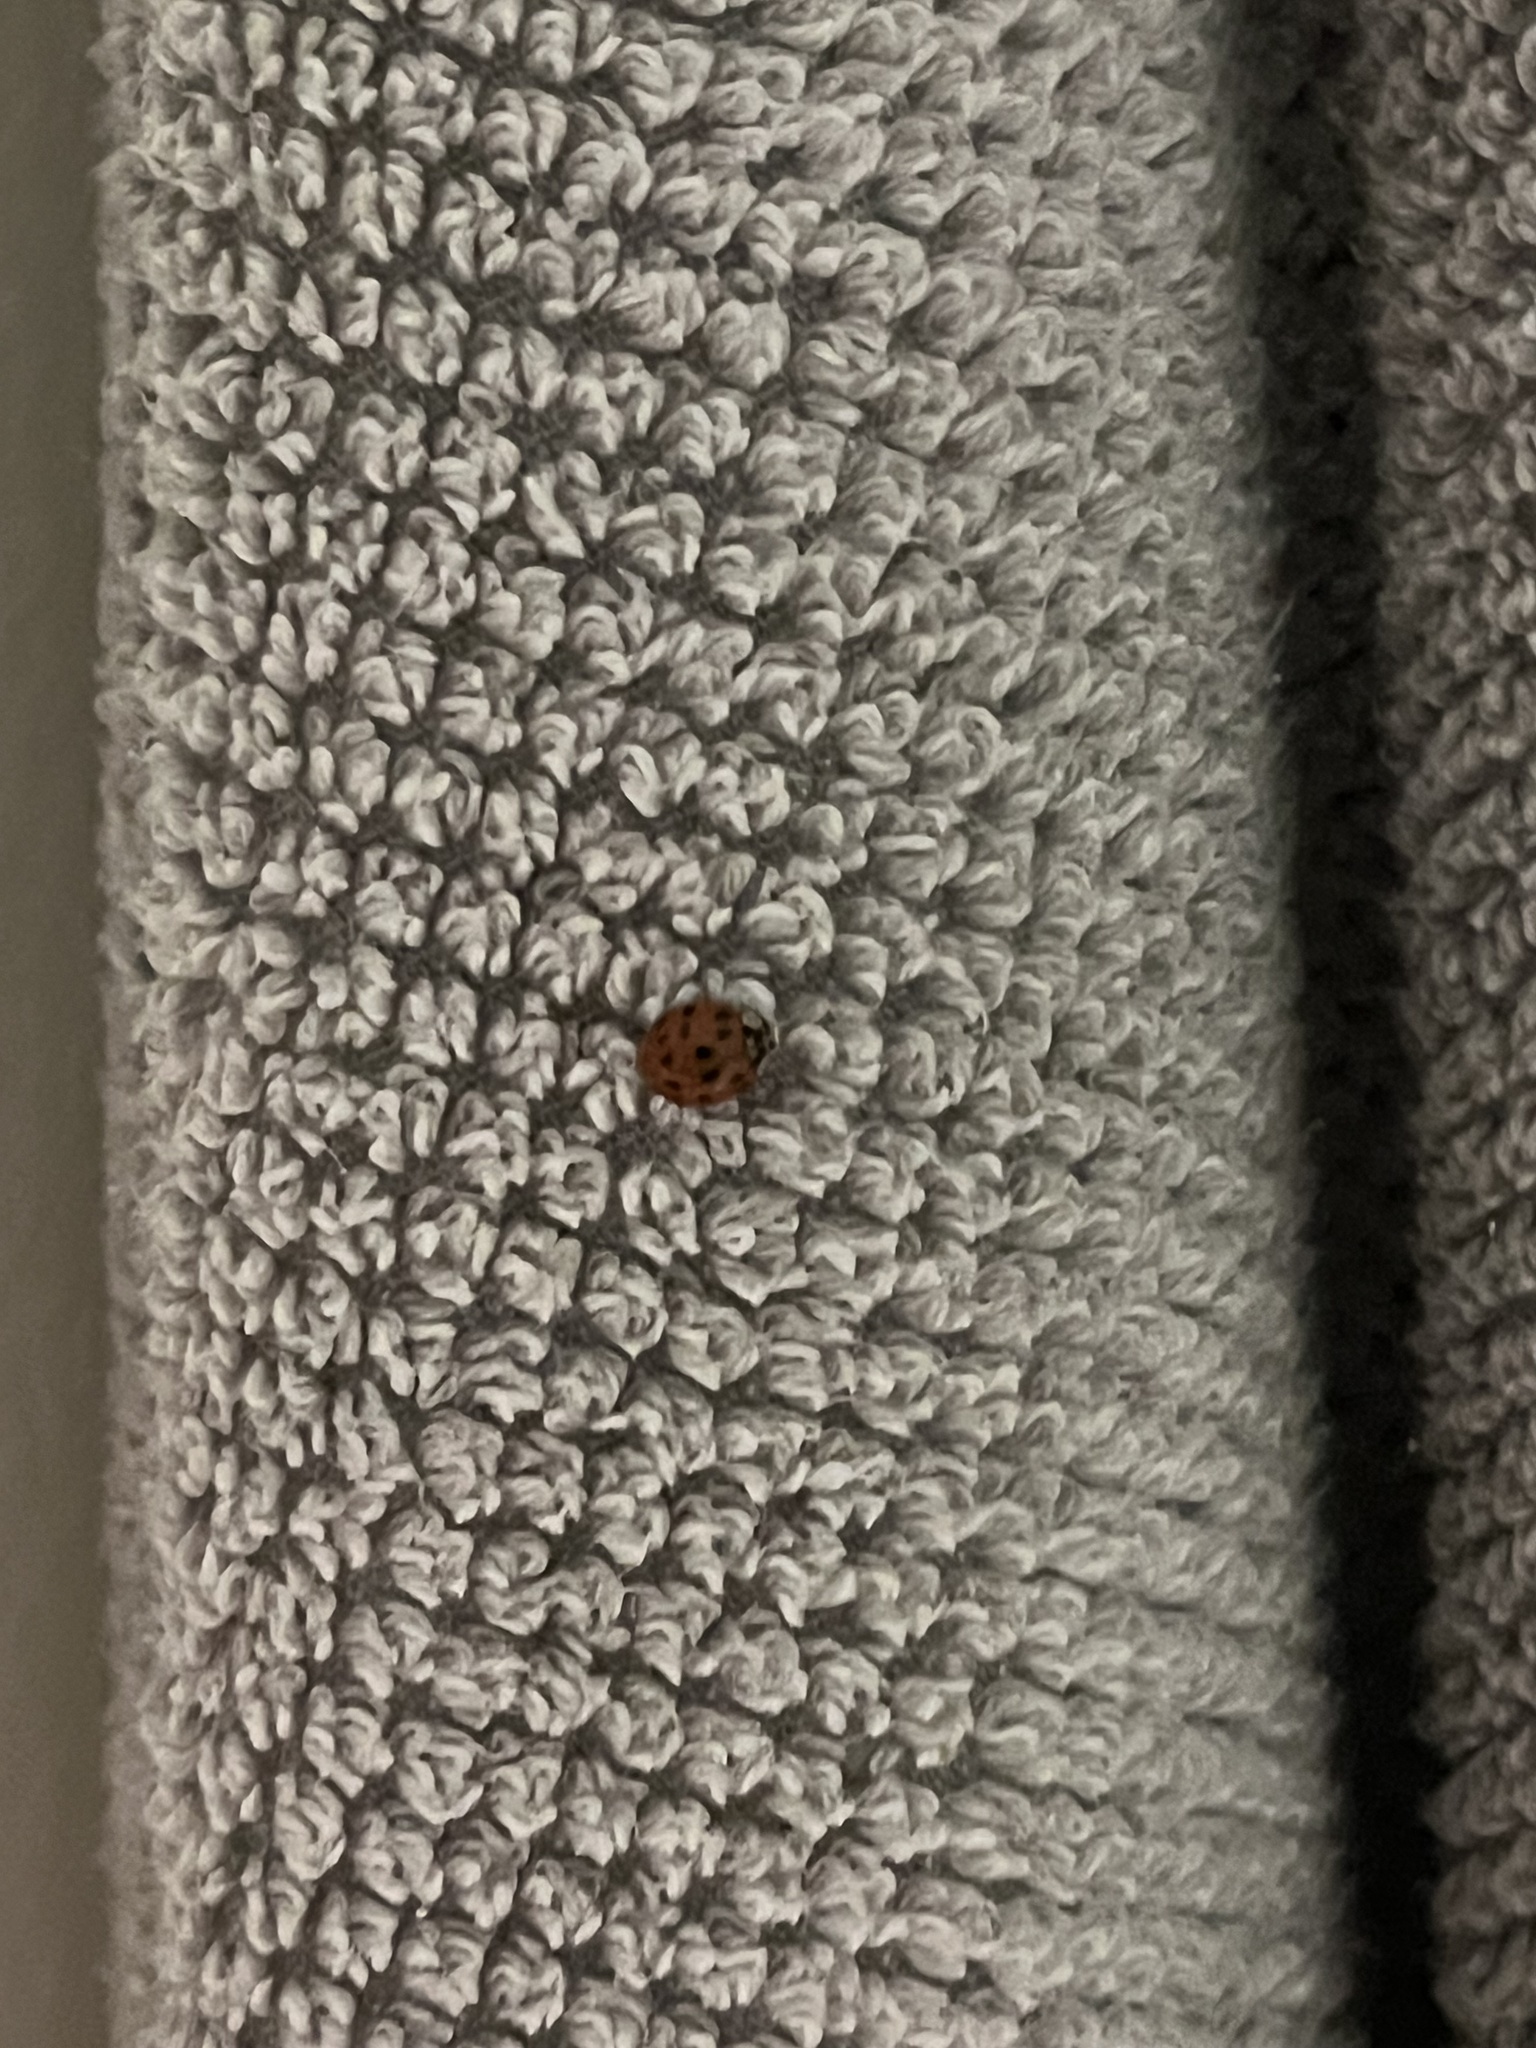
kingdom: Animalia
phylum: Arthropoda
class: Insecta
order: Coleoptera
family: Coccinellidae
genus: Harmonia
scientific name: Harmonia axyridis
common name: Harlequin ladybird
